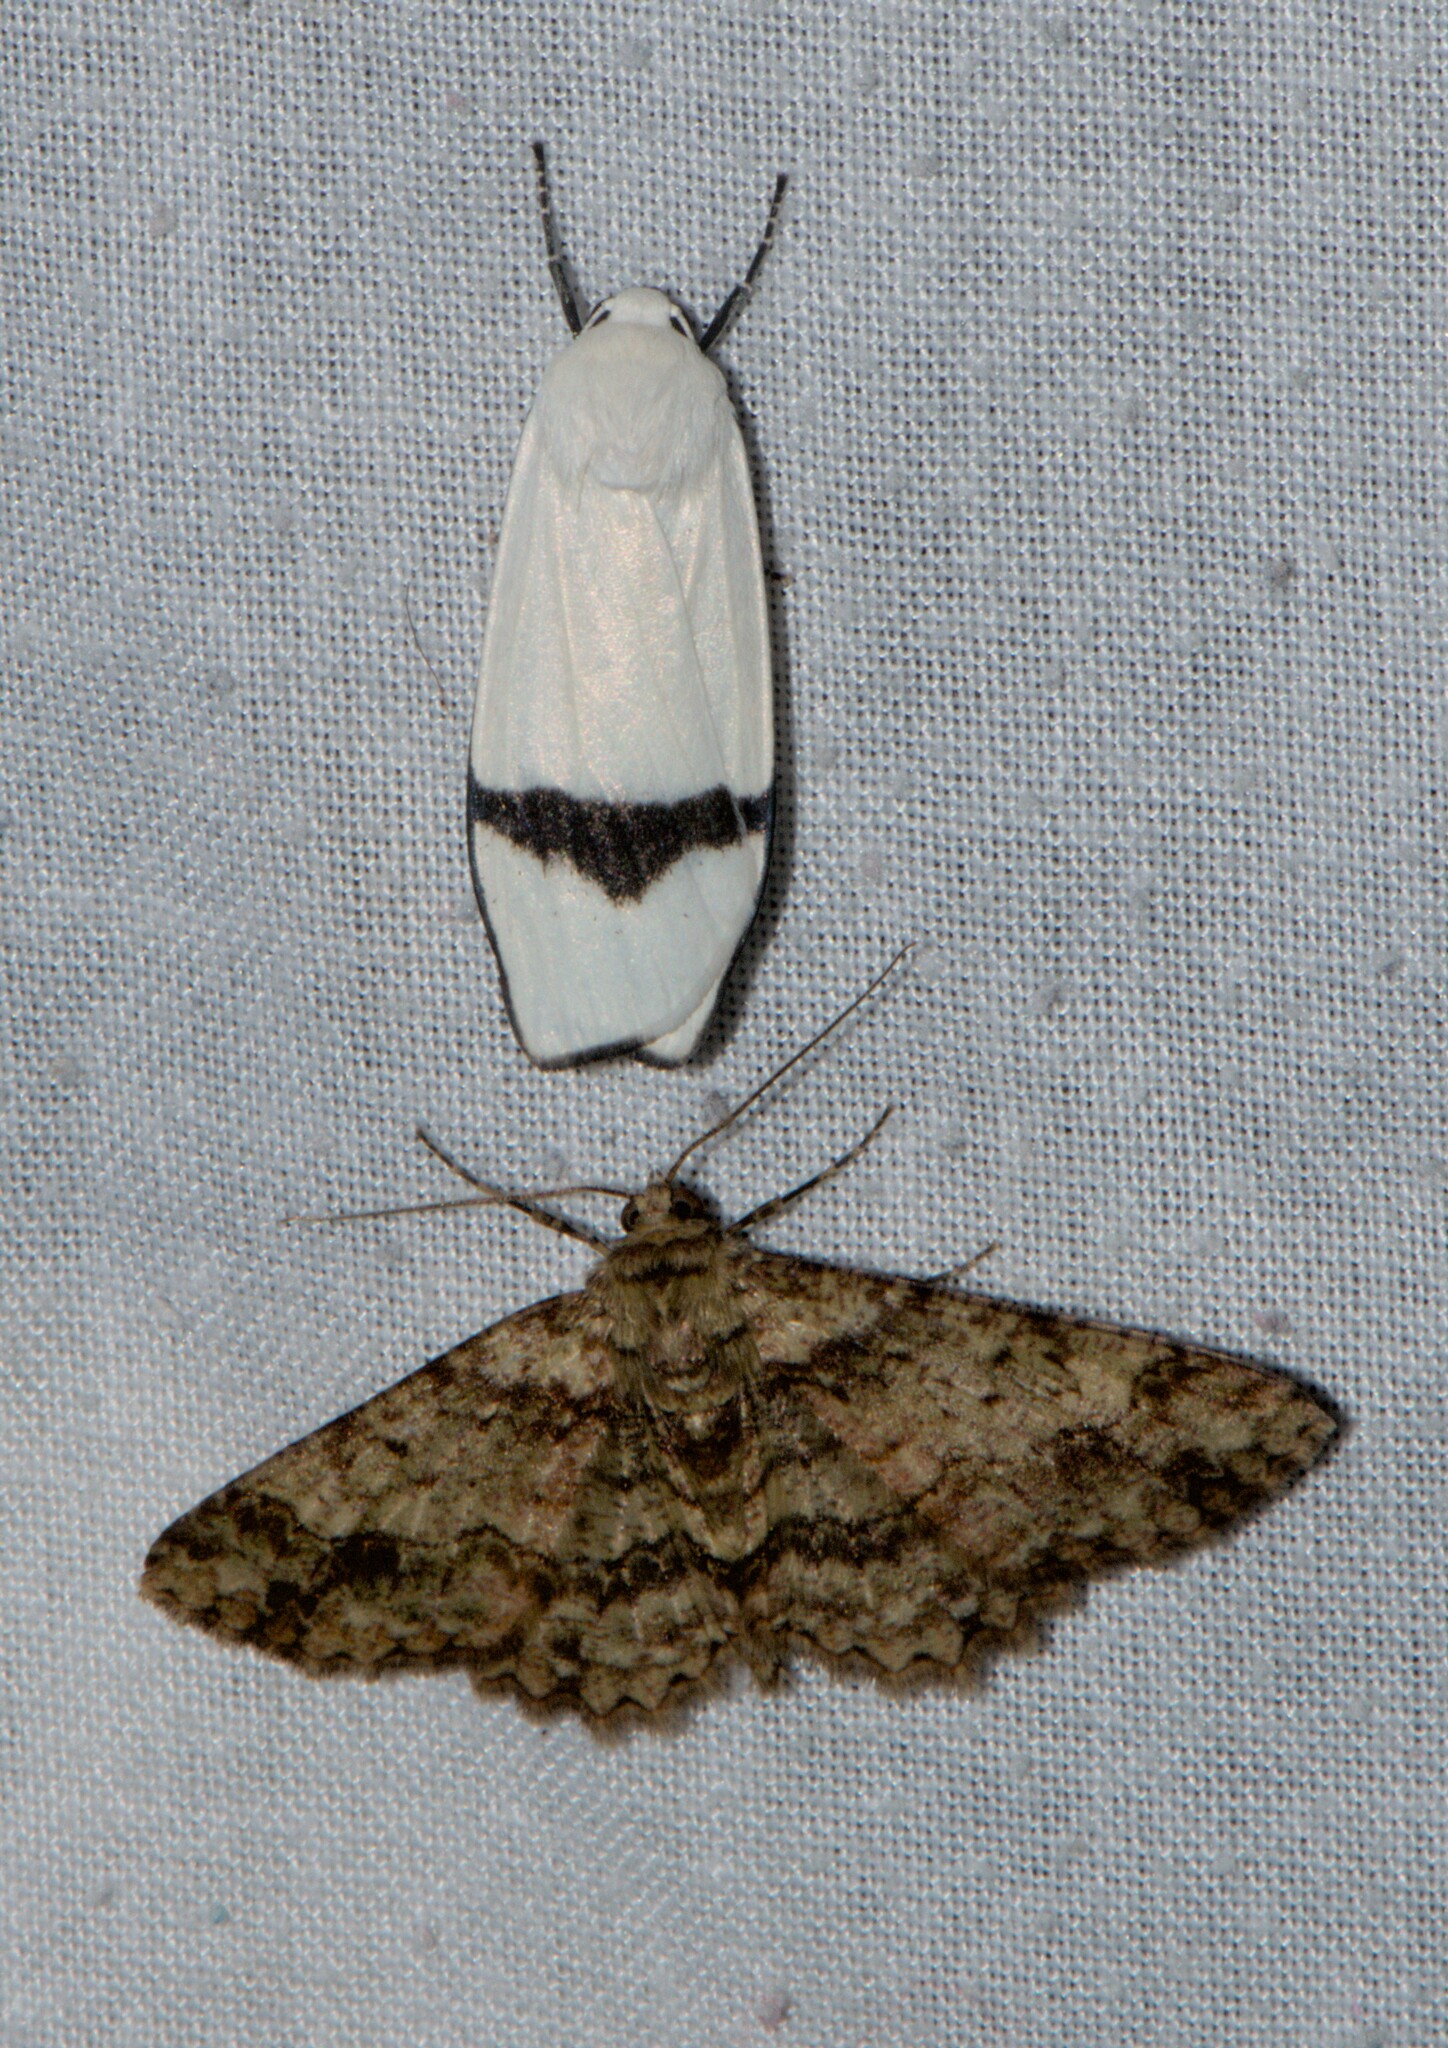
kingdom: Animalia
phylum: Arthropoda
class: Insecta
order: Lepidoptera
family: Erebidae
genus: Vamuna
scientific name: Vamuna remelana
